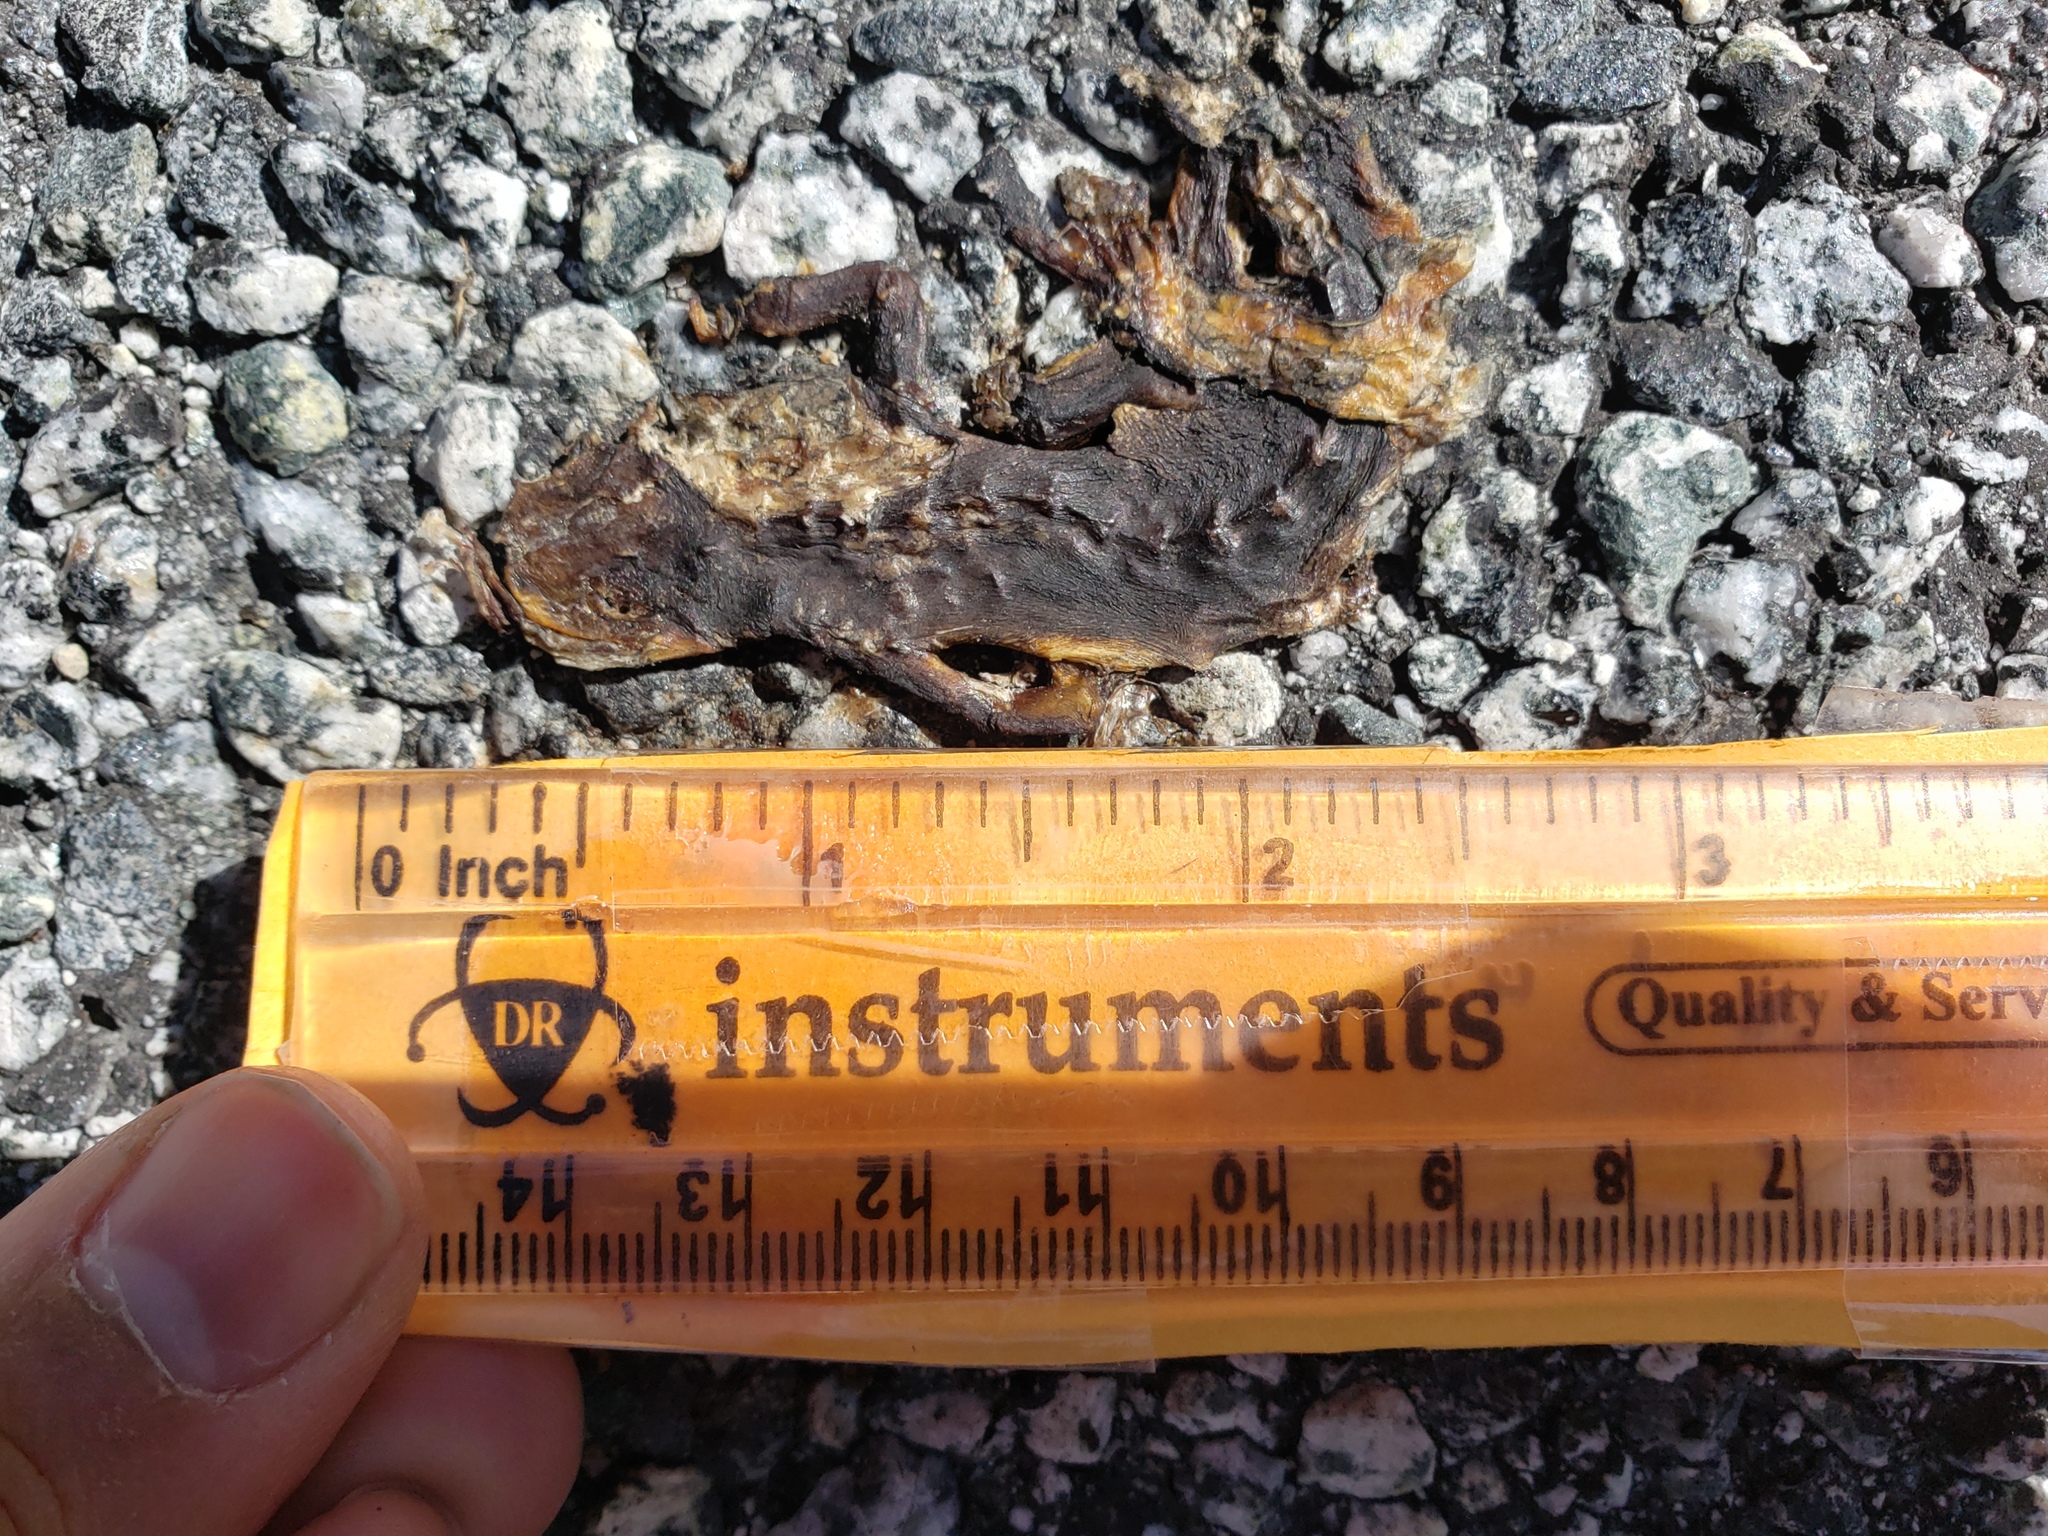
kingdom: Animalia
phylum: Chordata
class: Amphibia
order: Caudata
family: Salamandridae
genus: Taricha
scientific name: Taricha
